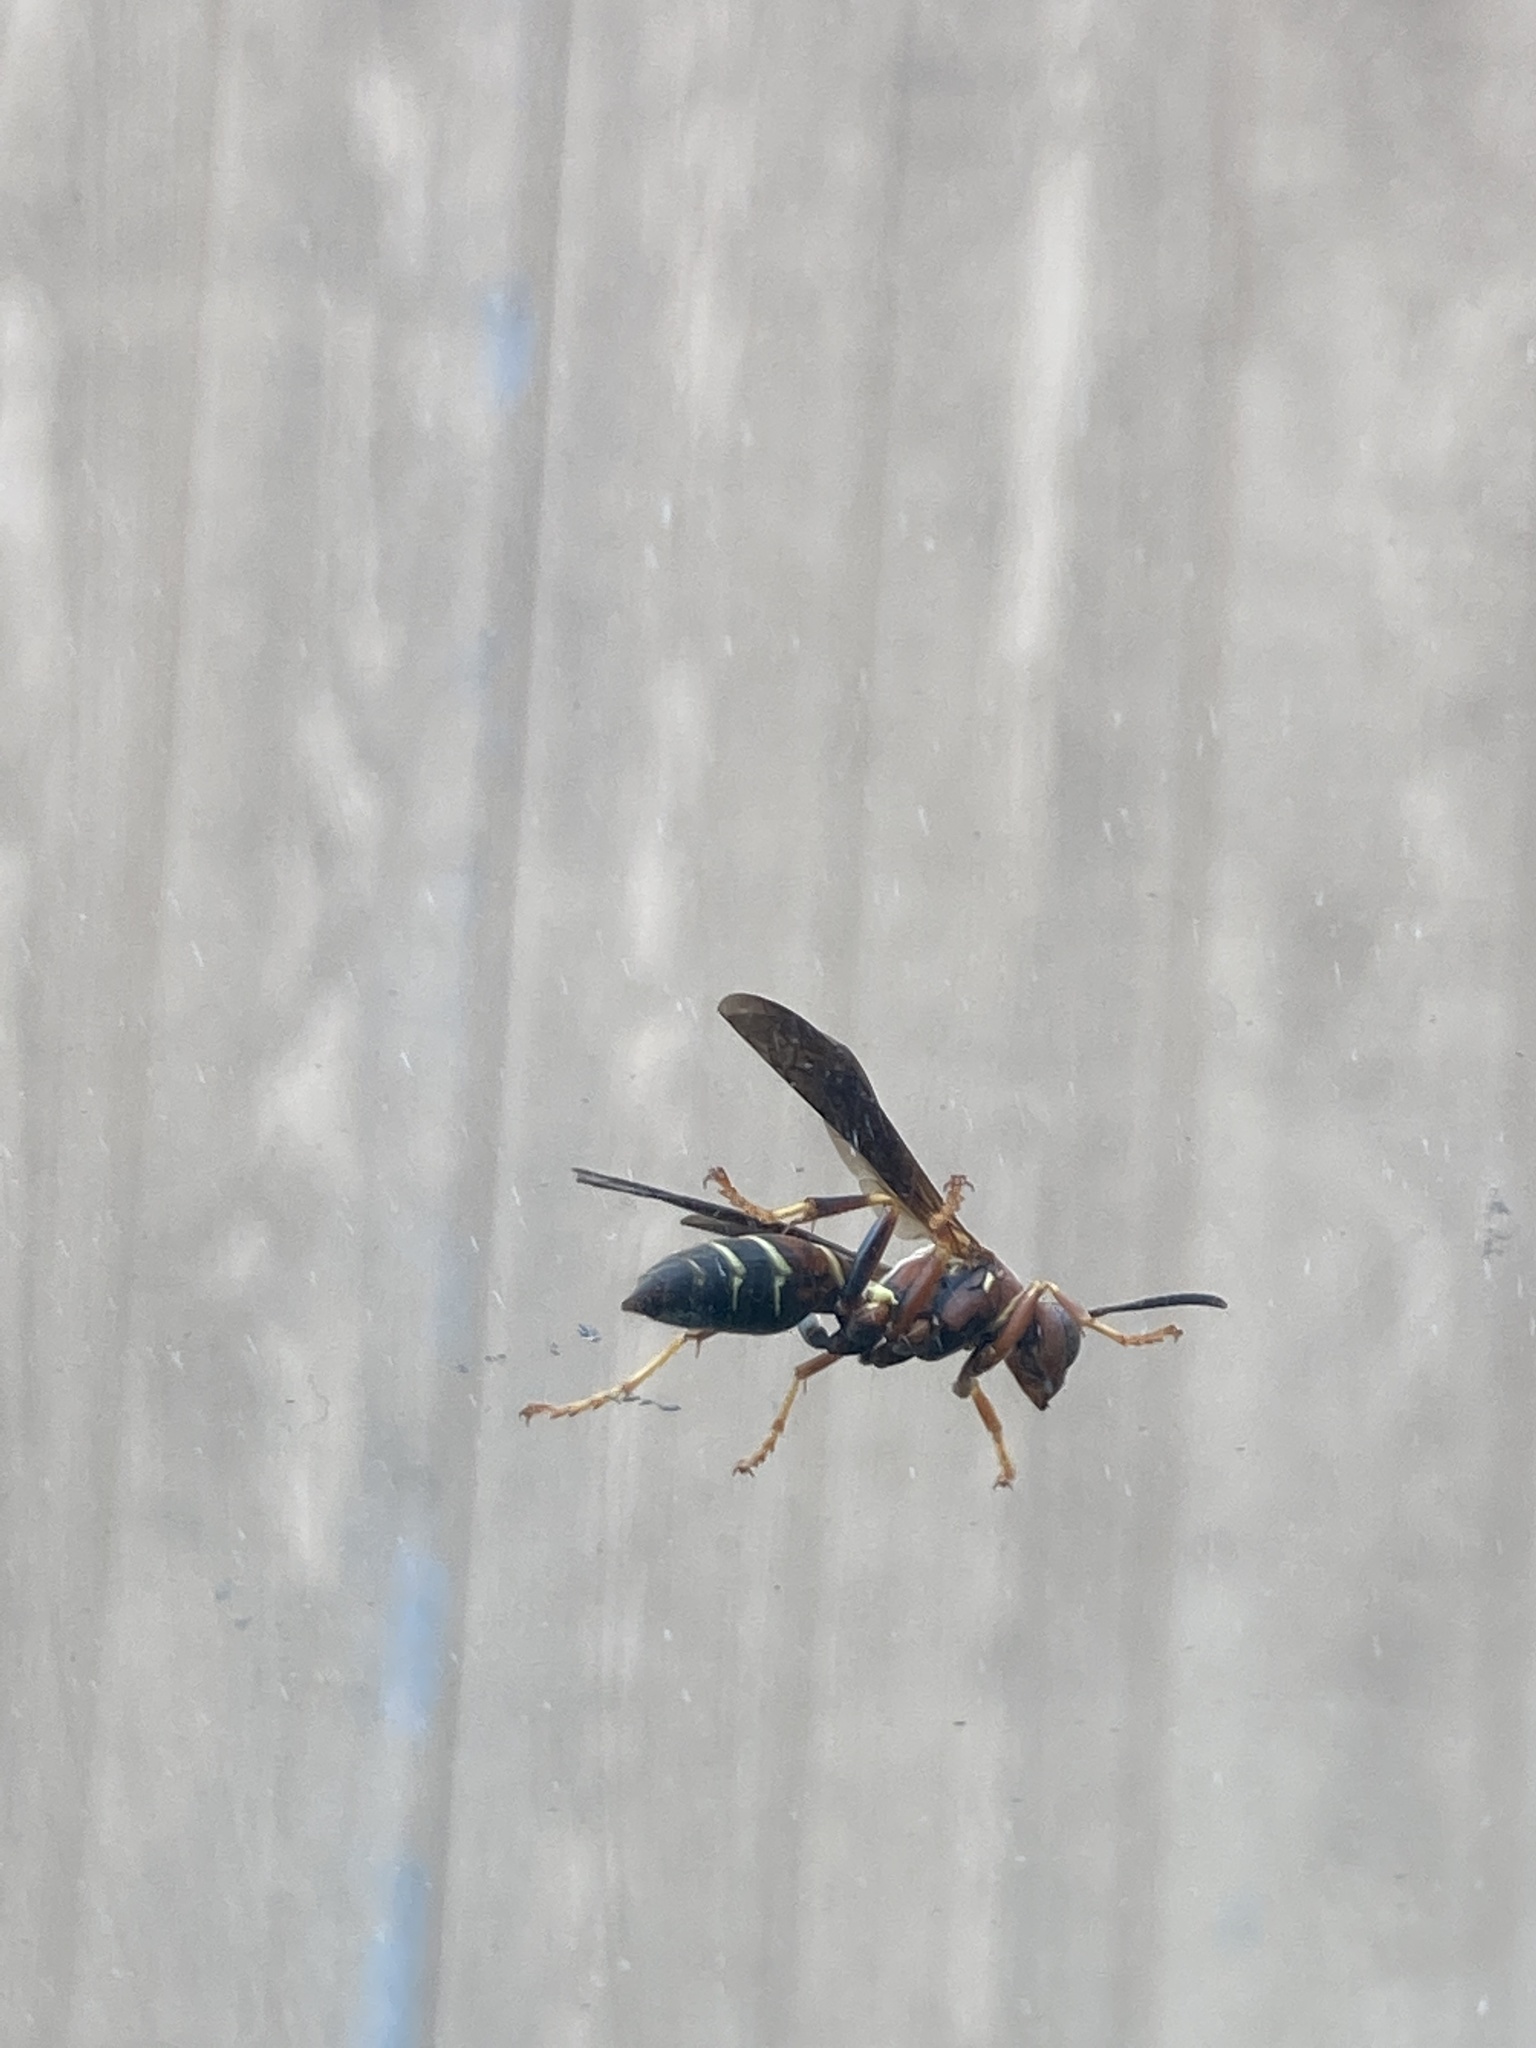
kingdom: Animalia
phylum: Arthropoda
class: Insecta
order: Hymenoptera
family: Eumenidae
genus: Polistes
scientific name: Polistes fuscatus
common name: Dark paper wasp
